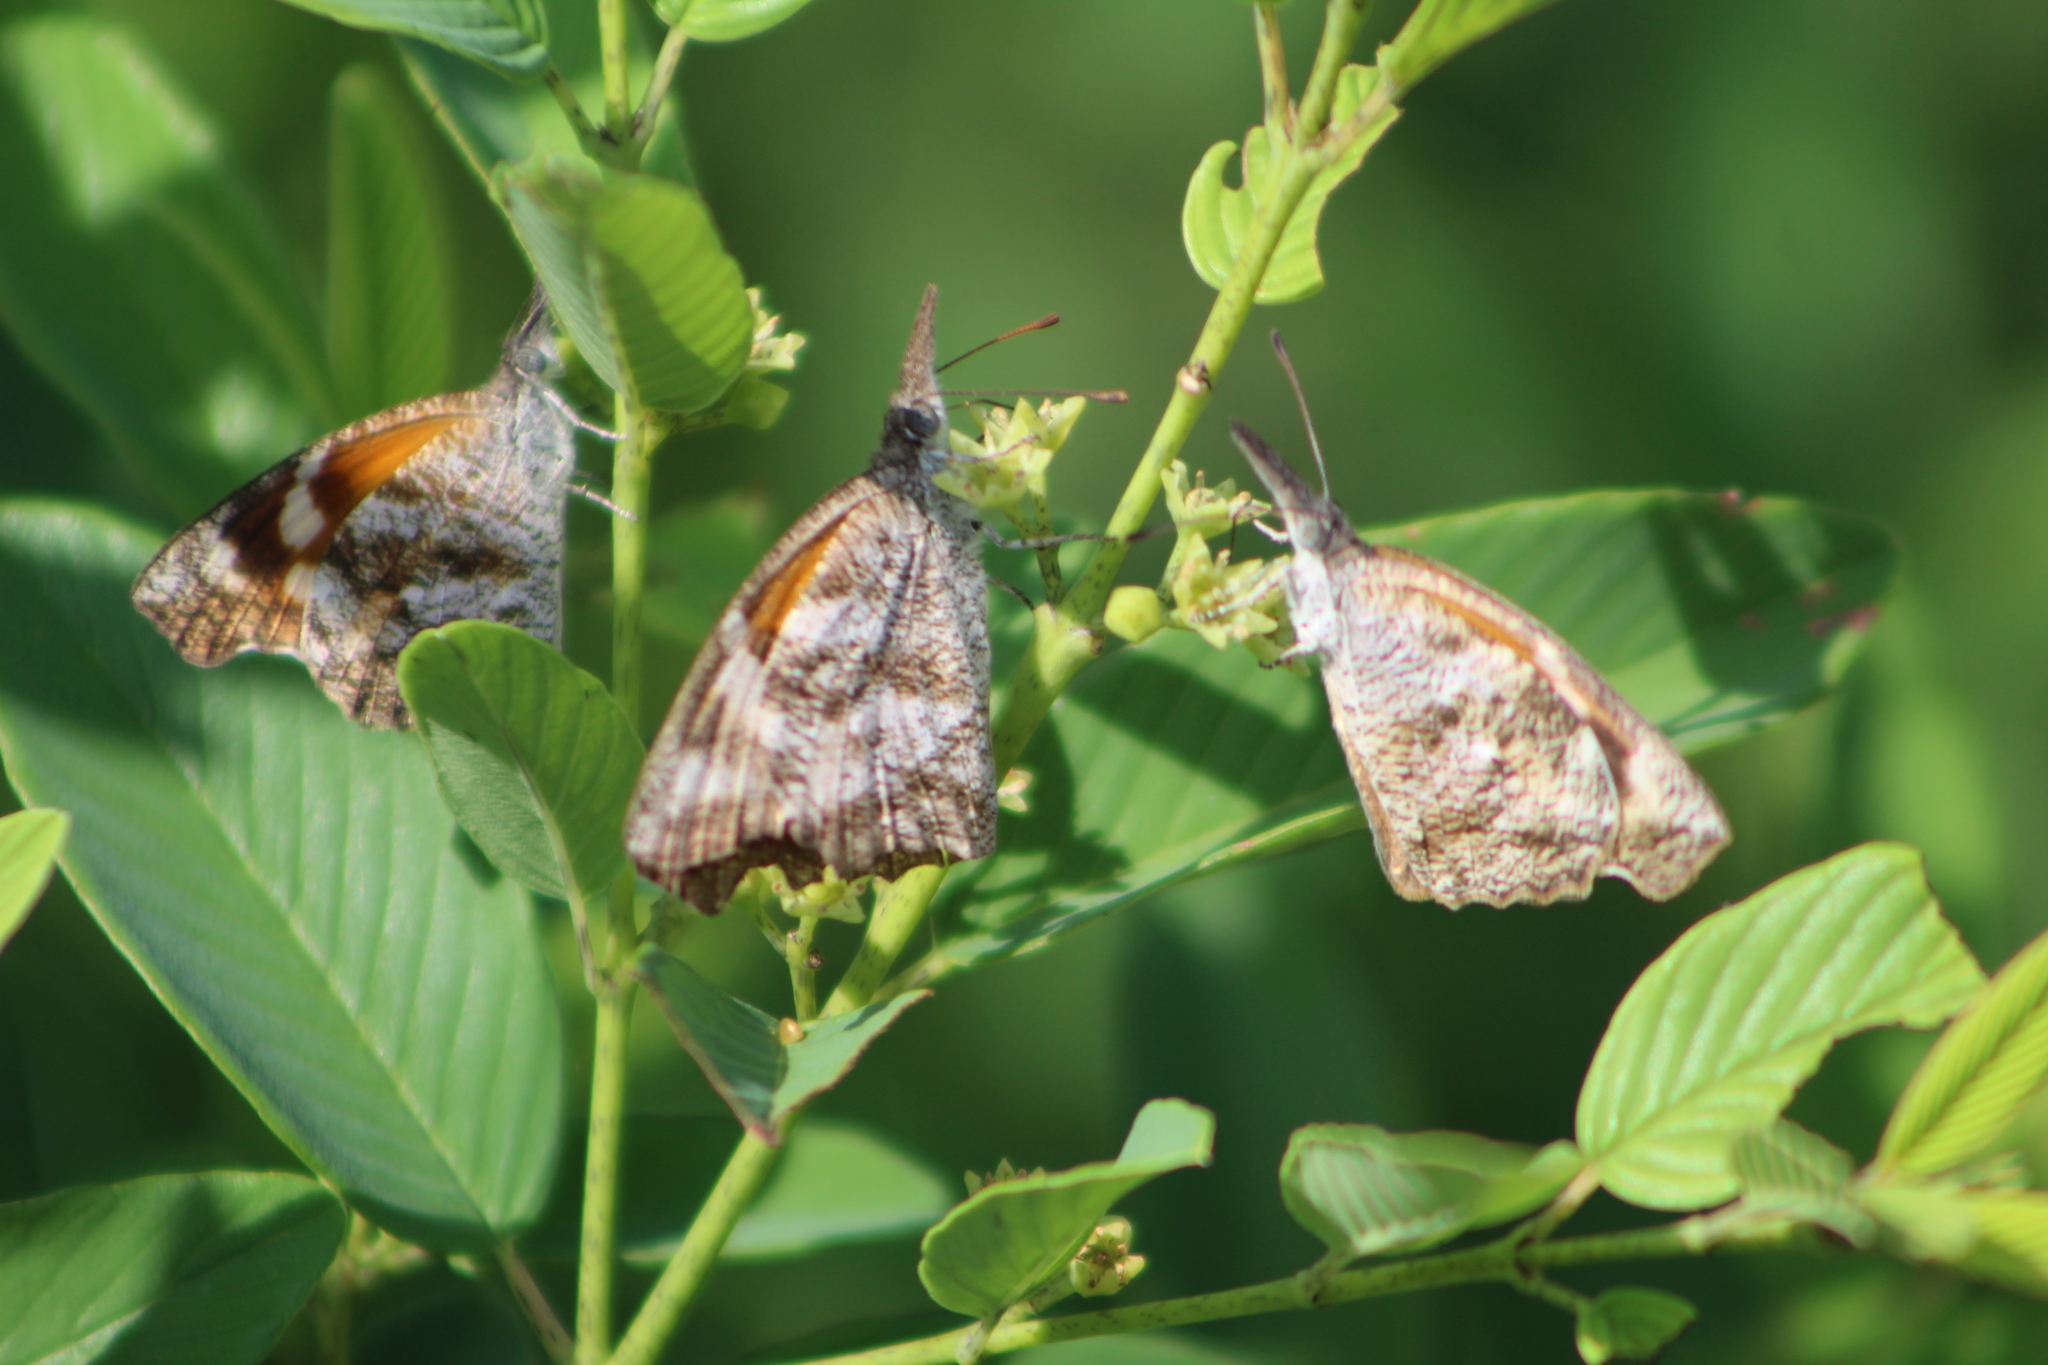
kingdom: Animalia
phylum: Arthropoda
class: Insecta
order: Lepidoptera
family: Nymphalidae
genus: Libytheana
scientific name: Libytheana carinenta
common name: American snout
